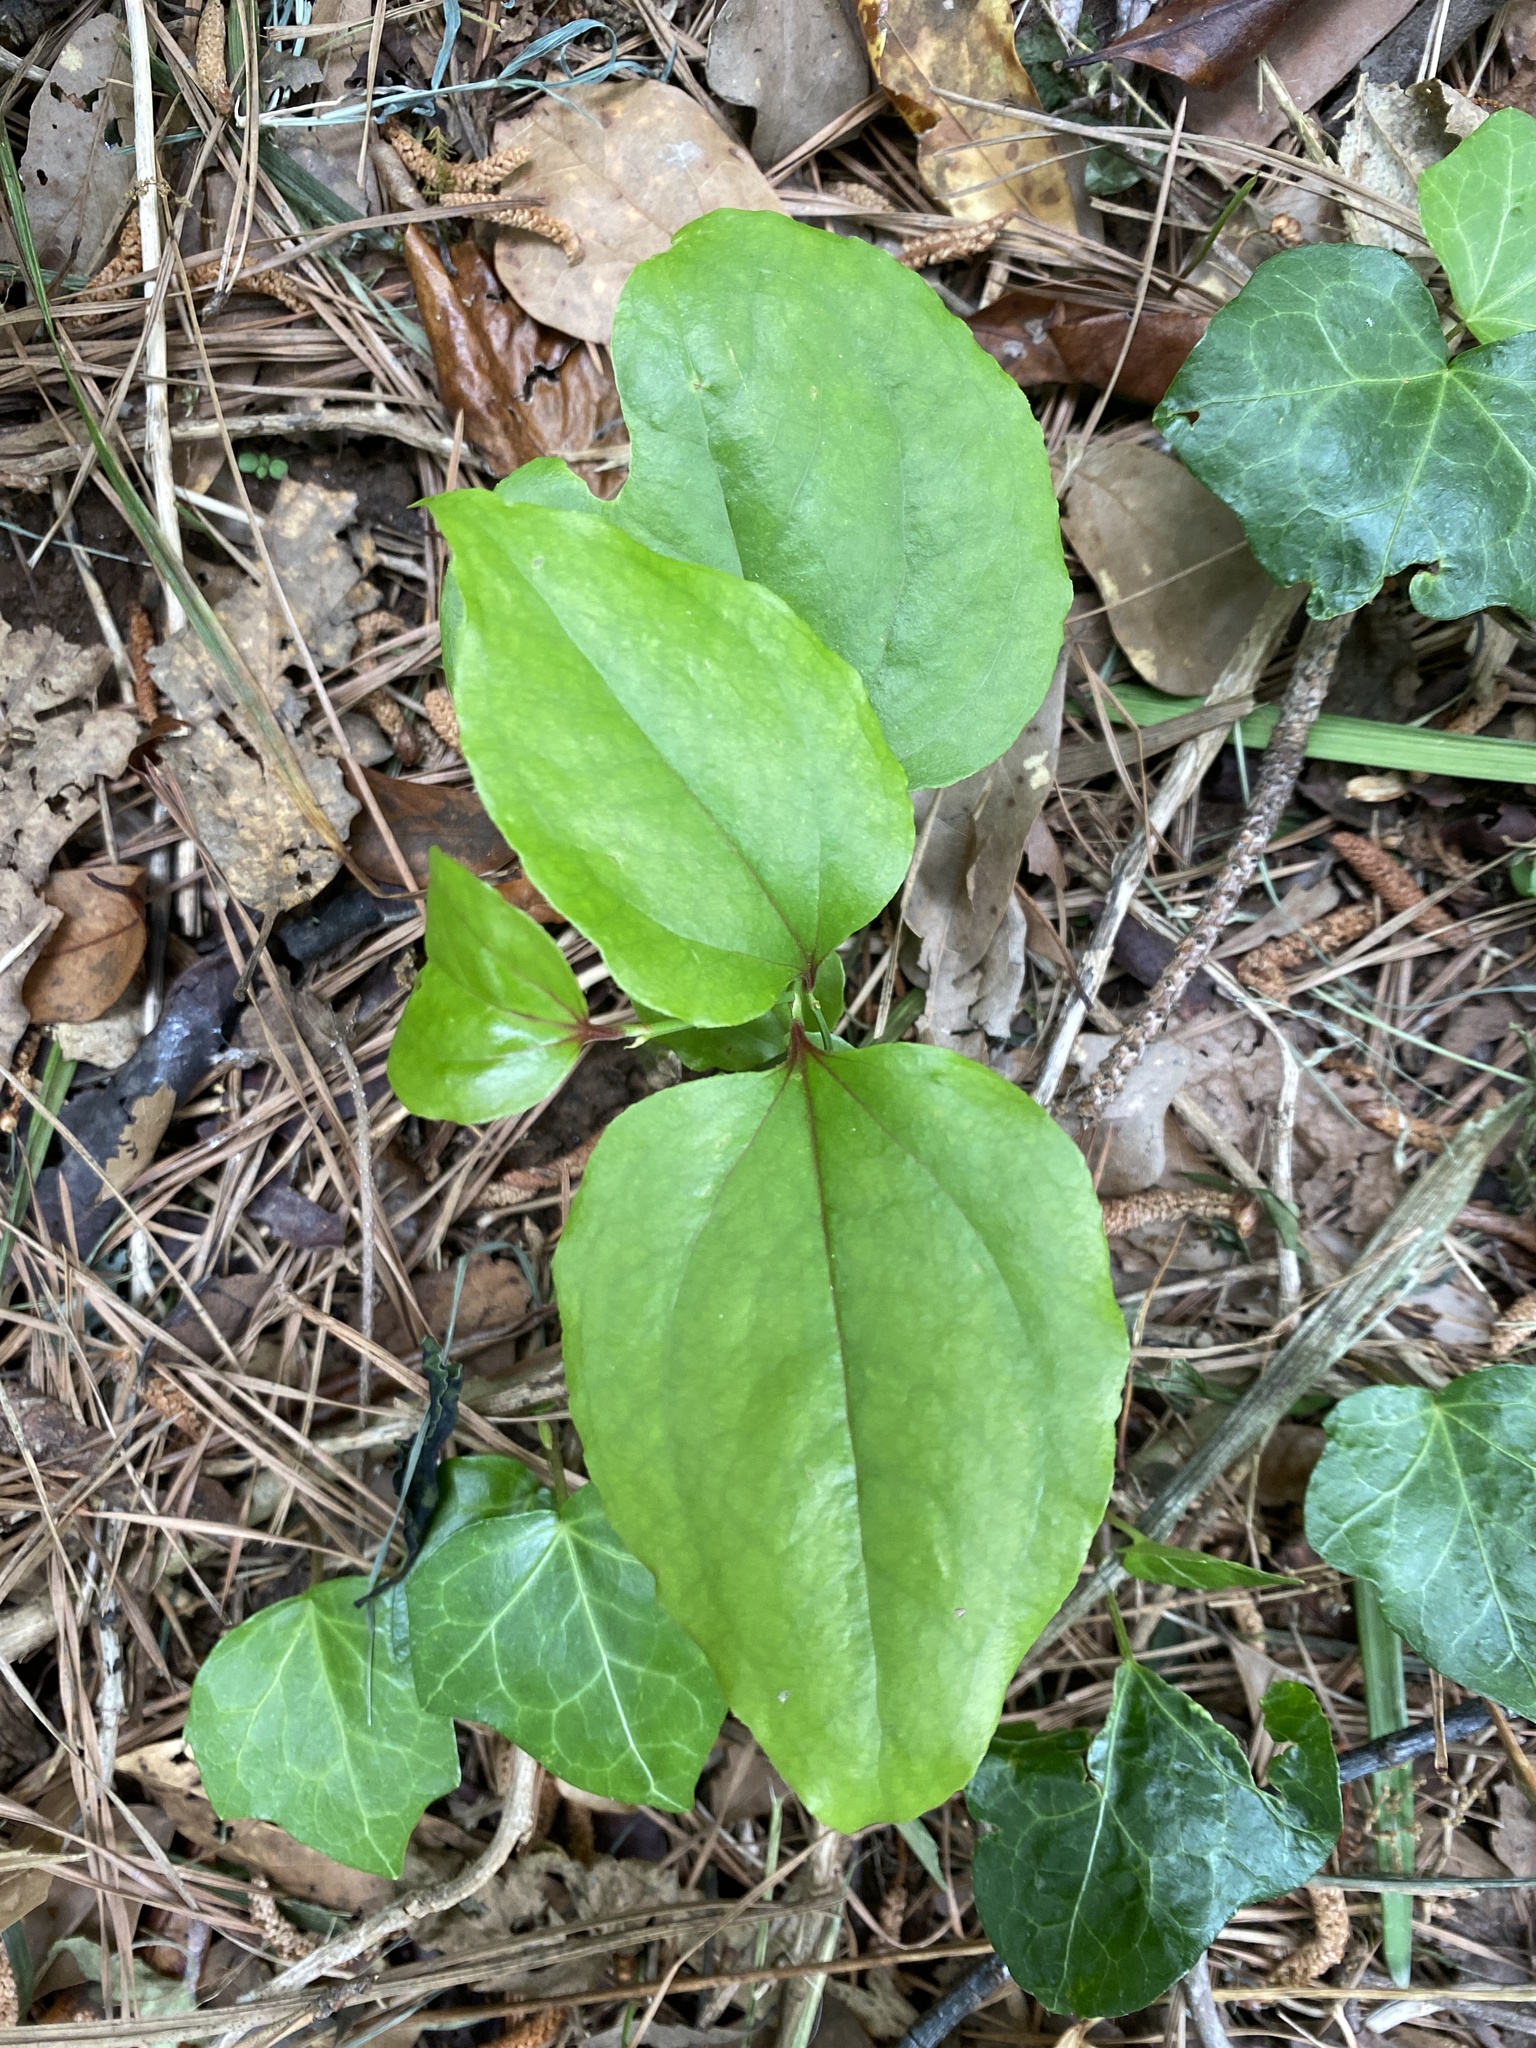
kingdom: Plantae
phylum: Tracheophyta
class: Liliopsida
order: Liliales
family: Smilacaceae
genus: Smilax
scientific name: Smilax rotundifolia
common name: Bullbriar
